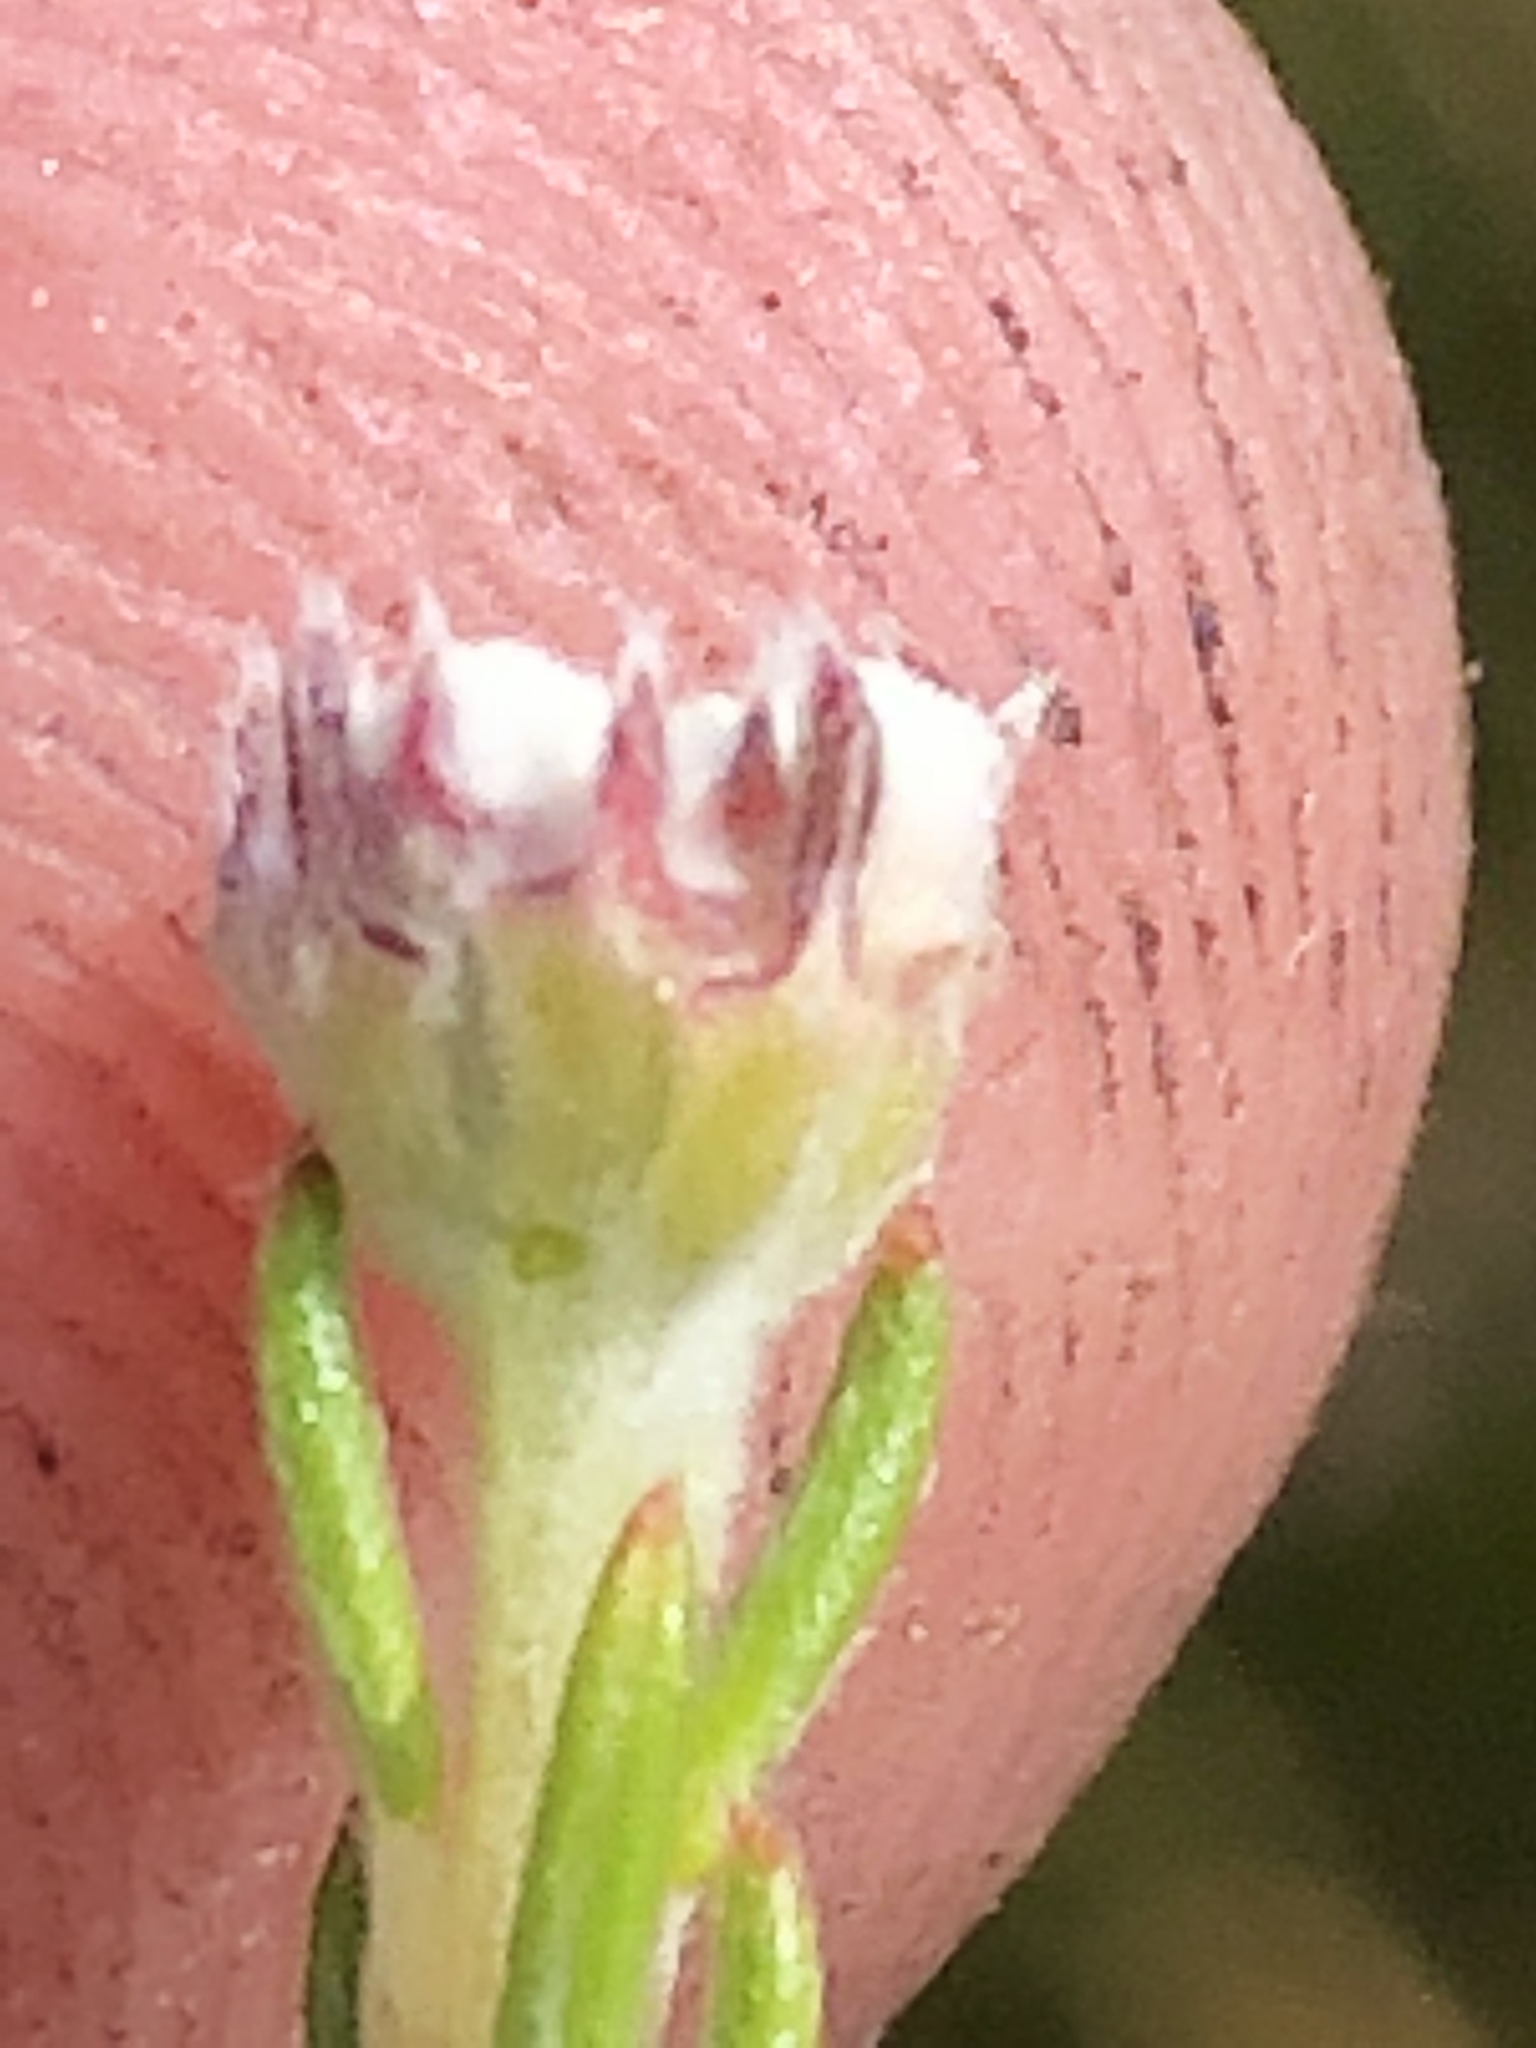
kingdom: Plantae
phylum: Tracheophyta
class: Magnoliopsida
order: Rosales
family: Rhamnaceae
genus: Phylica
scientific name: Phylica alba
